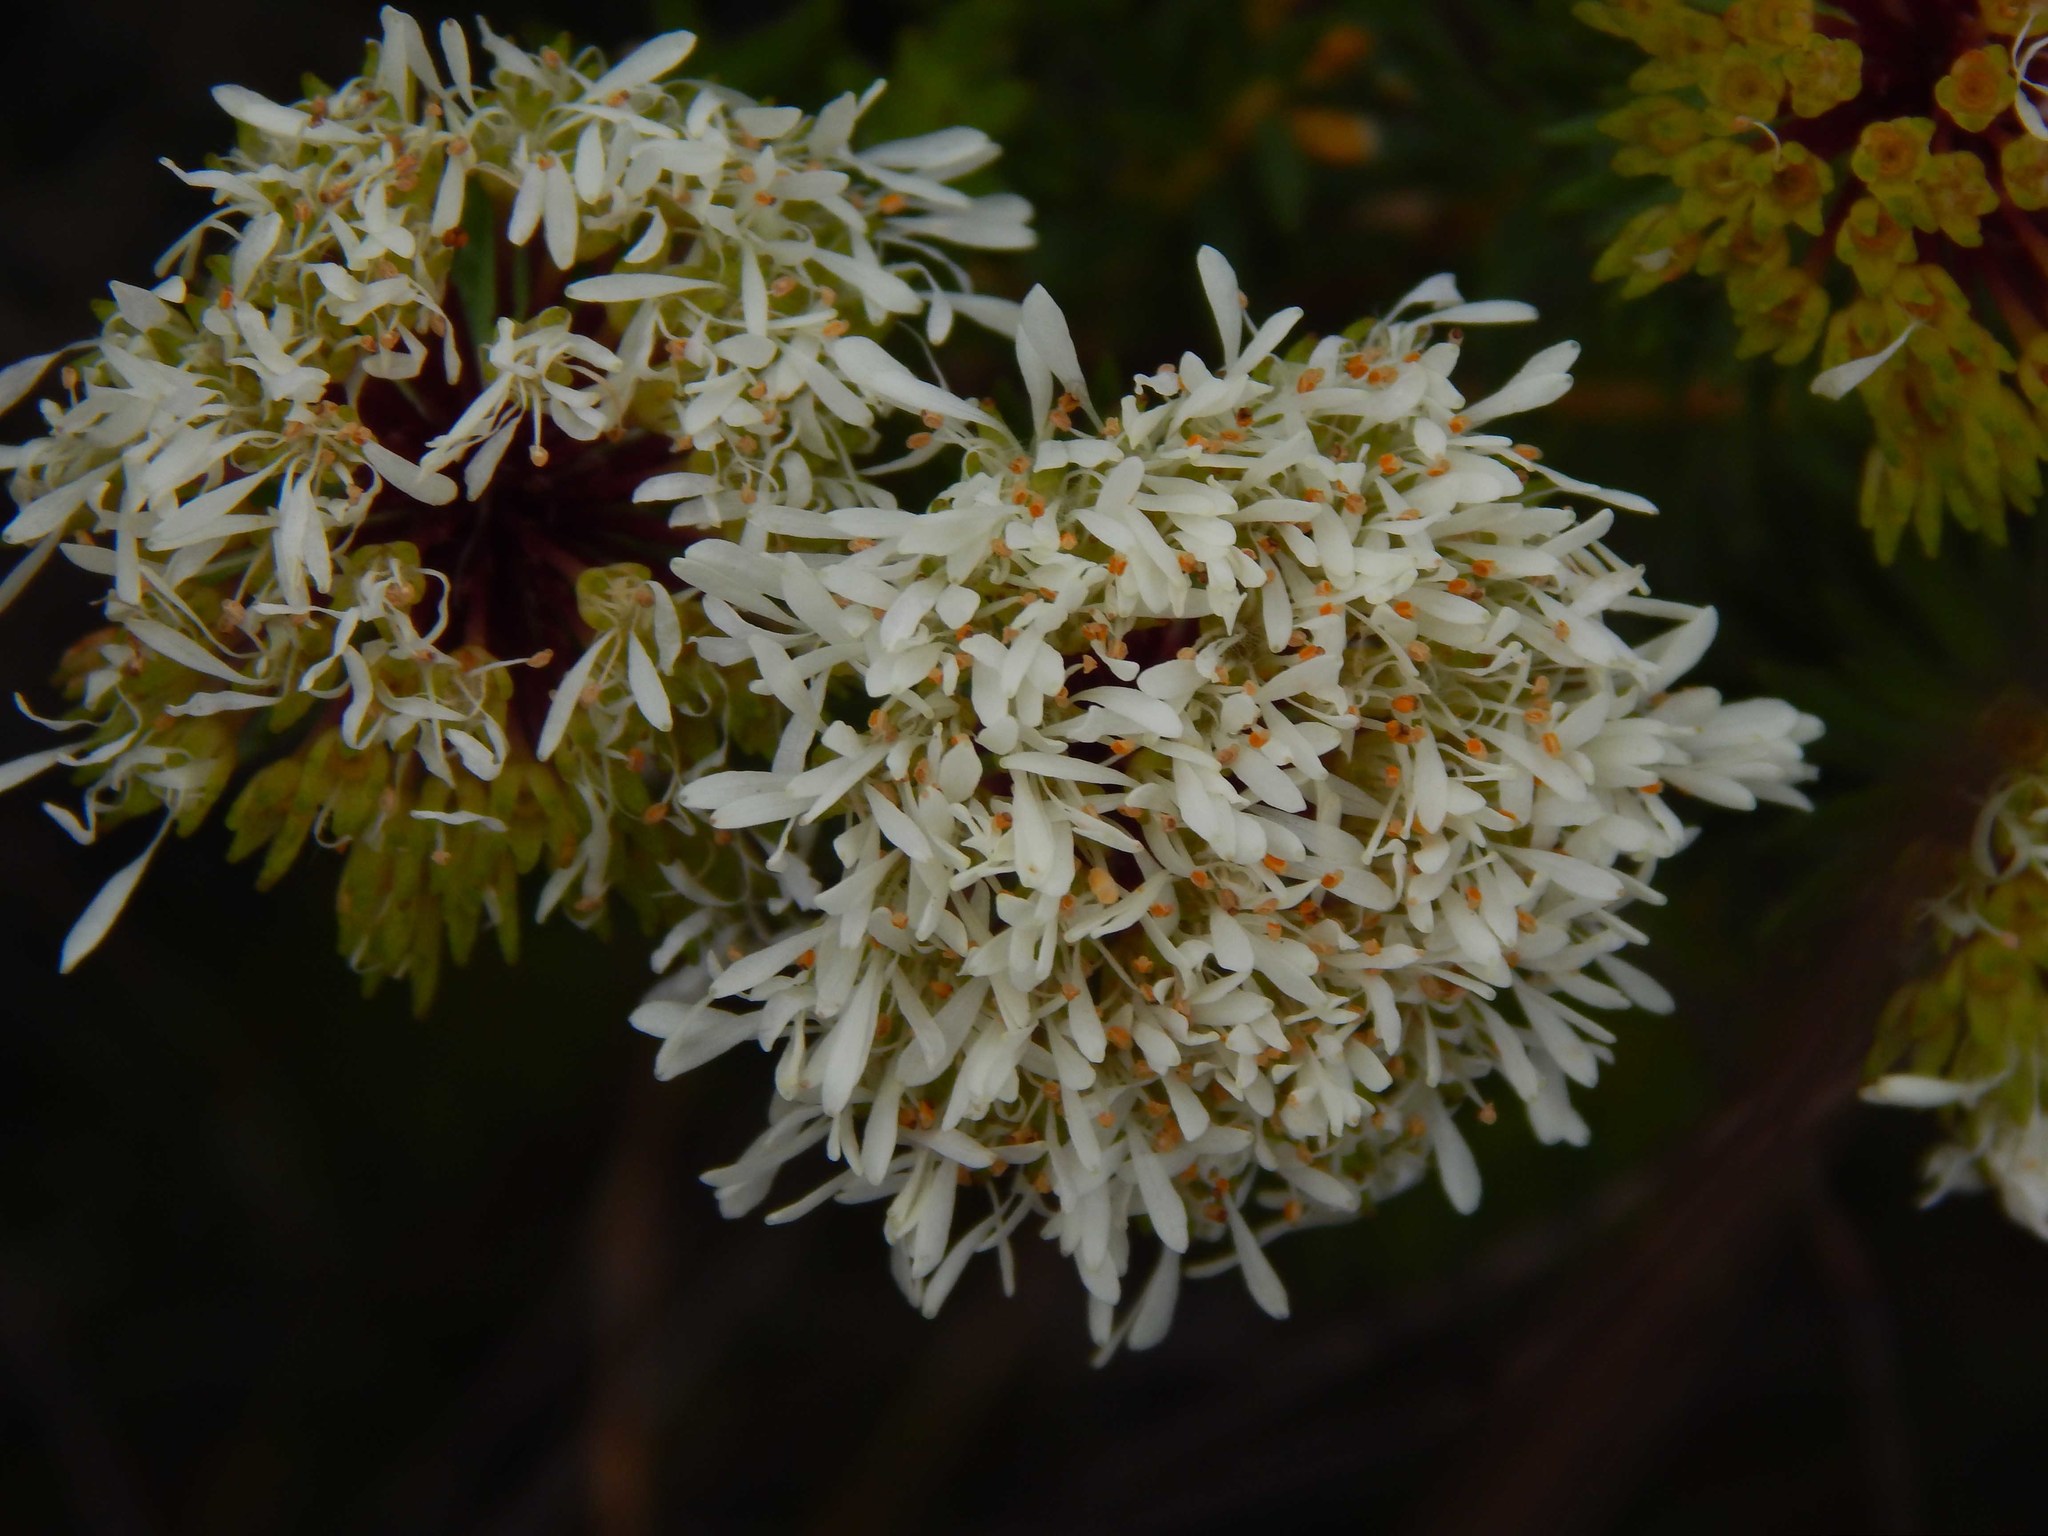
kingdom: Plantae
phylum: Tracheophyta
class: Magnoliopsida
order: Sapindales
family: Rutaceae
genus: Agathosma
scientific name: Agathosma bifida
